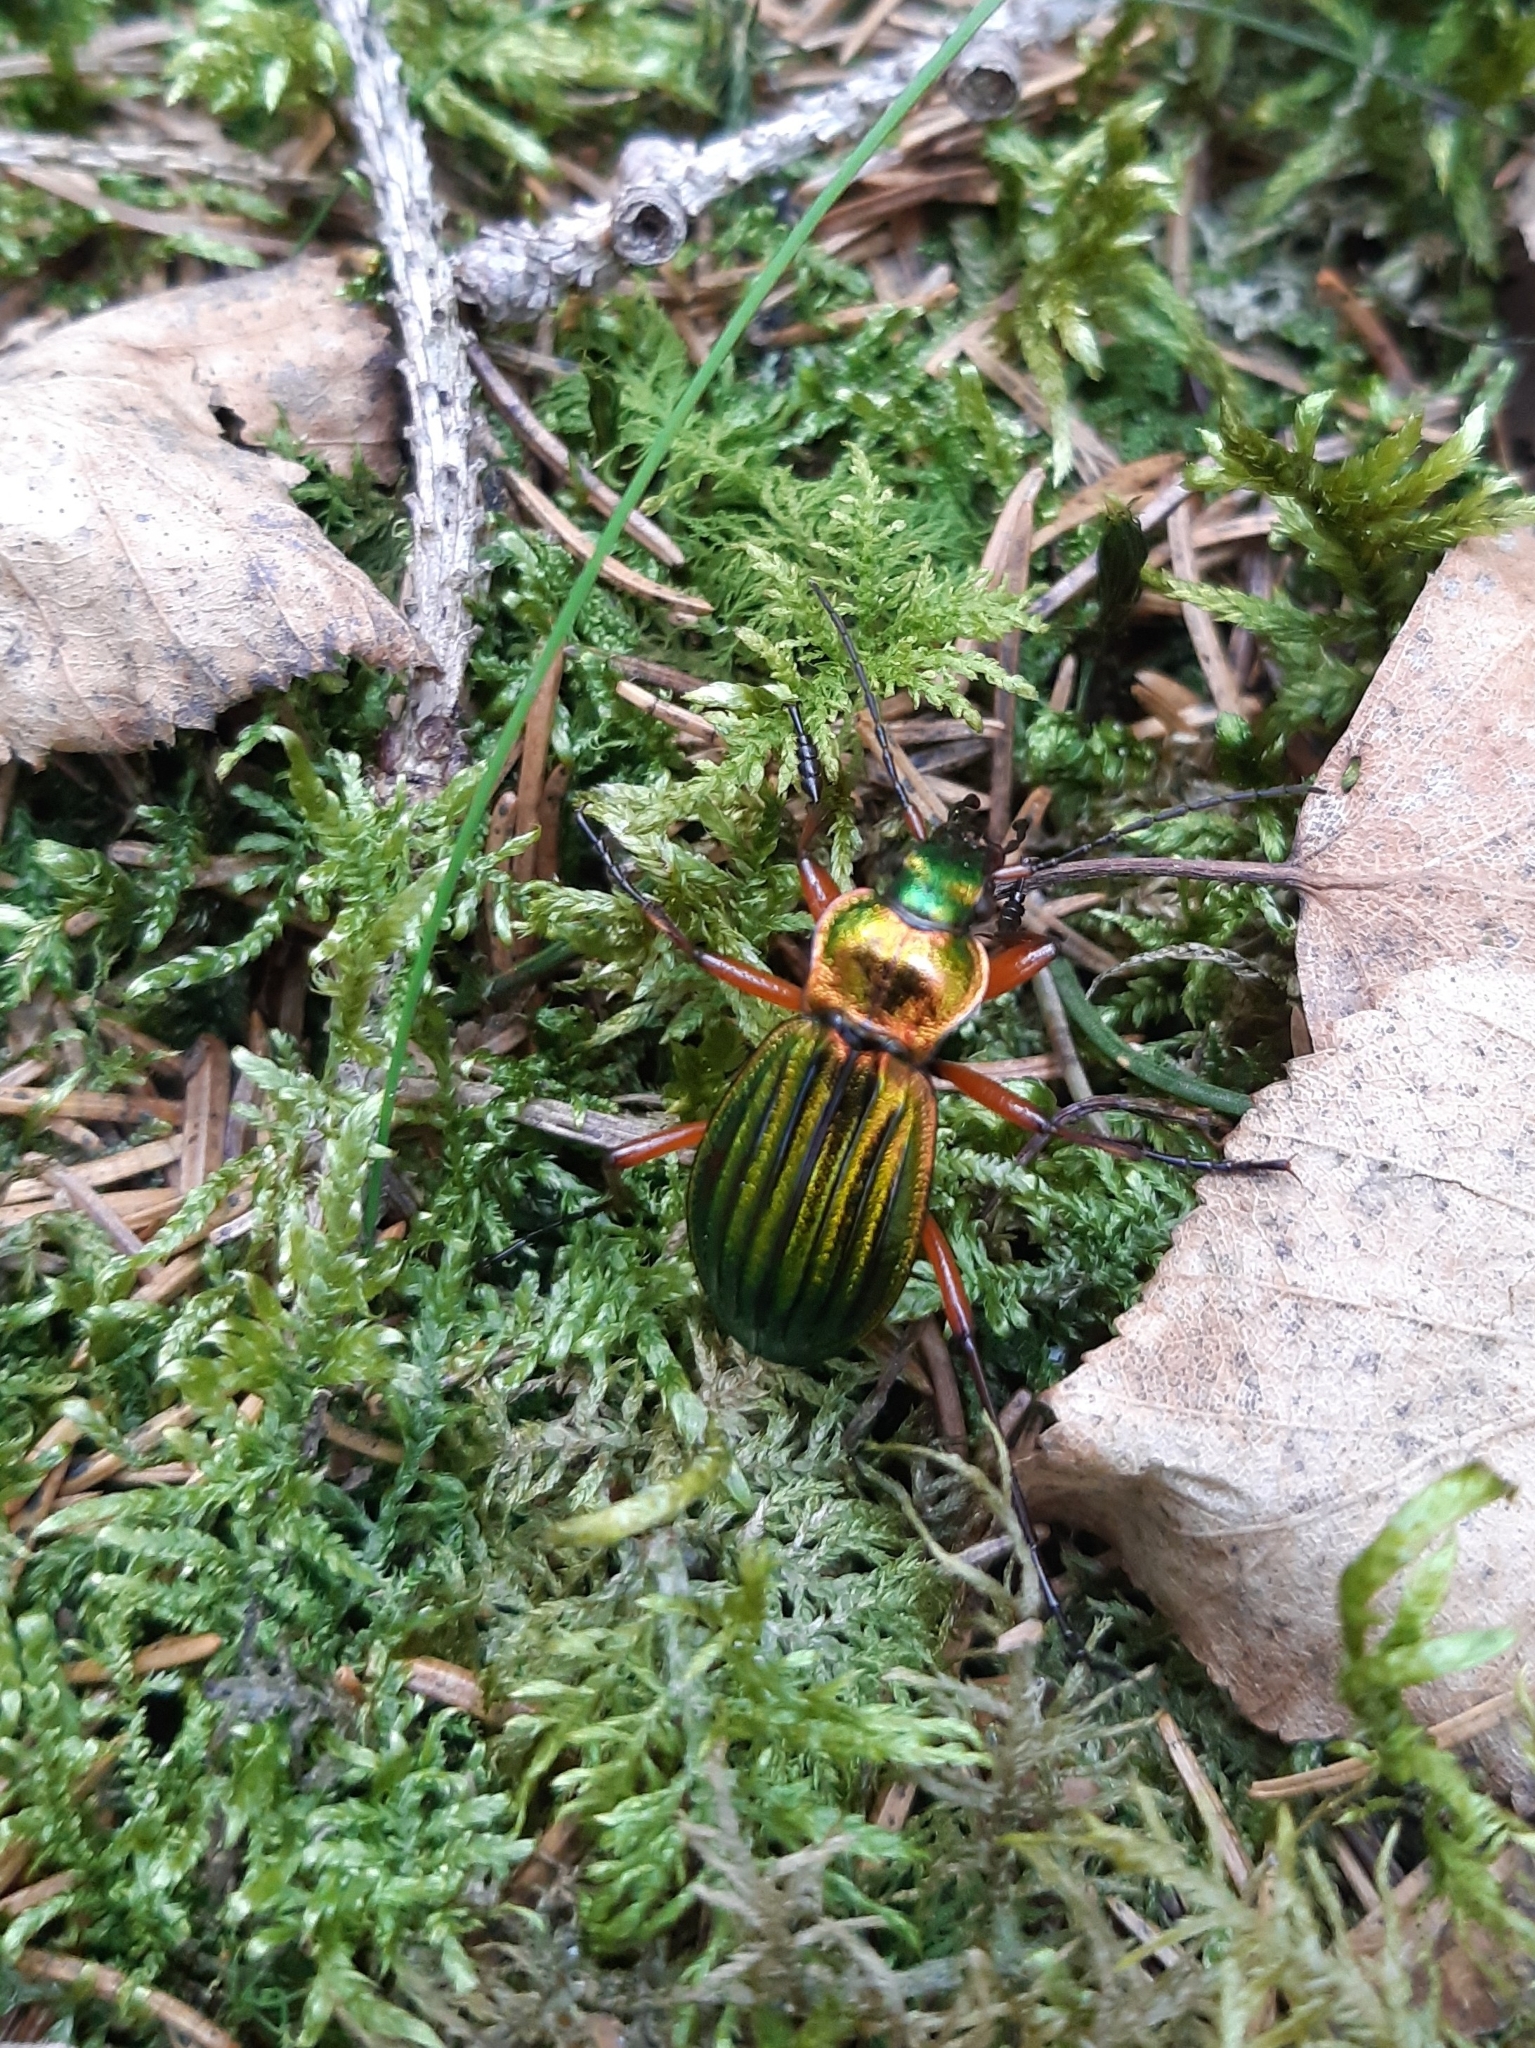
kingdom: Animalia
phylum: Arthropoda
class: Insecta
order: Coleoptera
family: Carabidae
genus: Carabus
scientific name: Carabus auronitens
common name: Carabus auronitens
